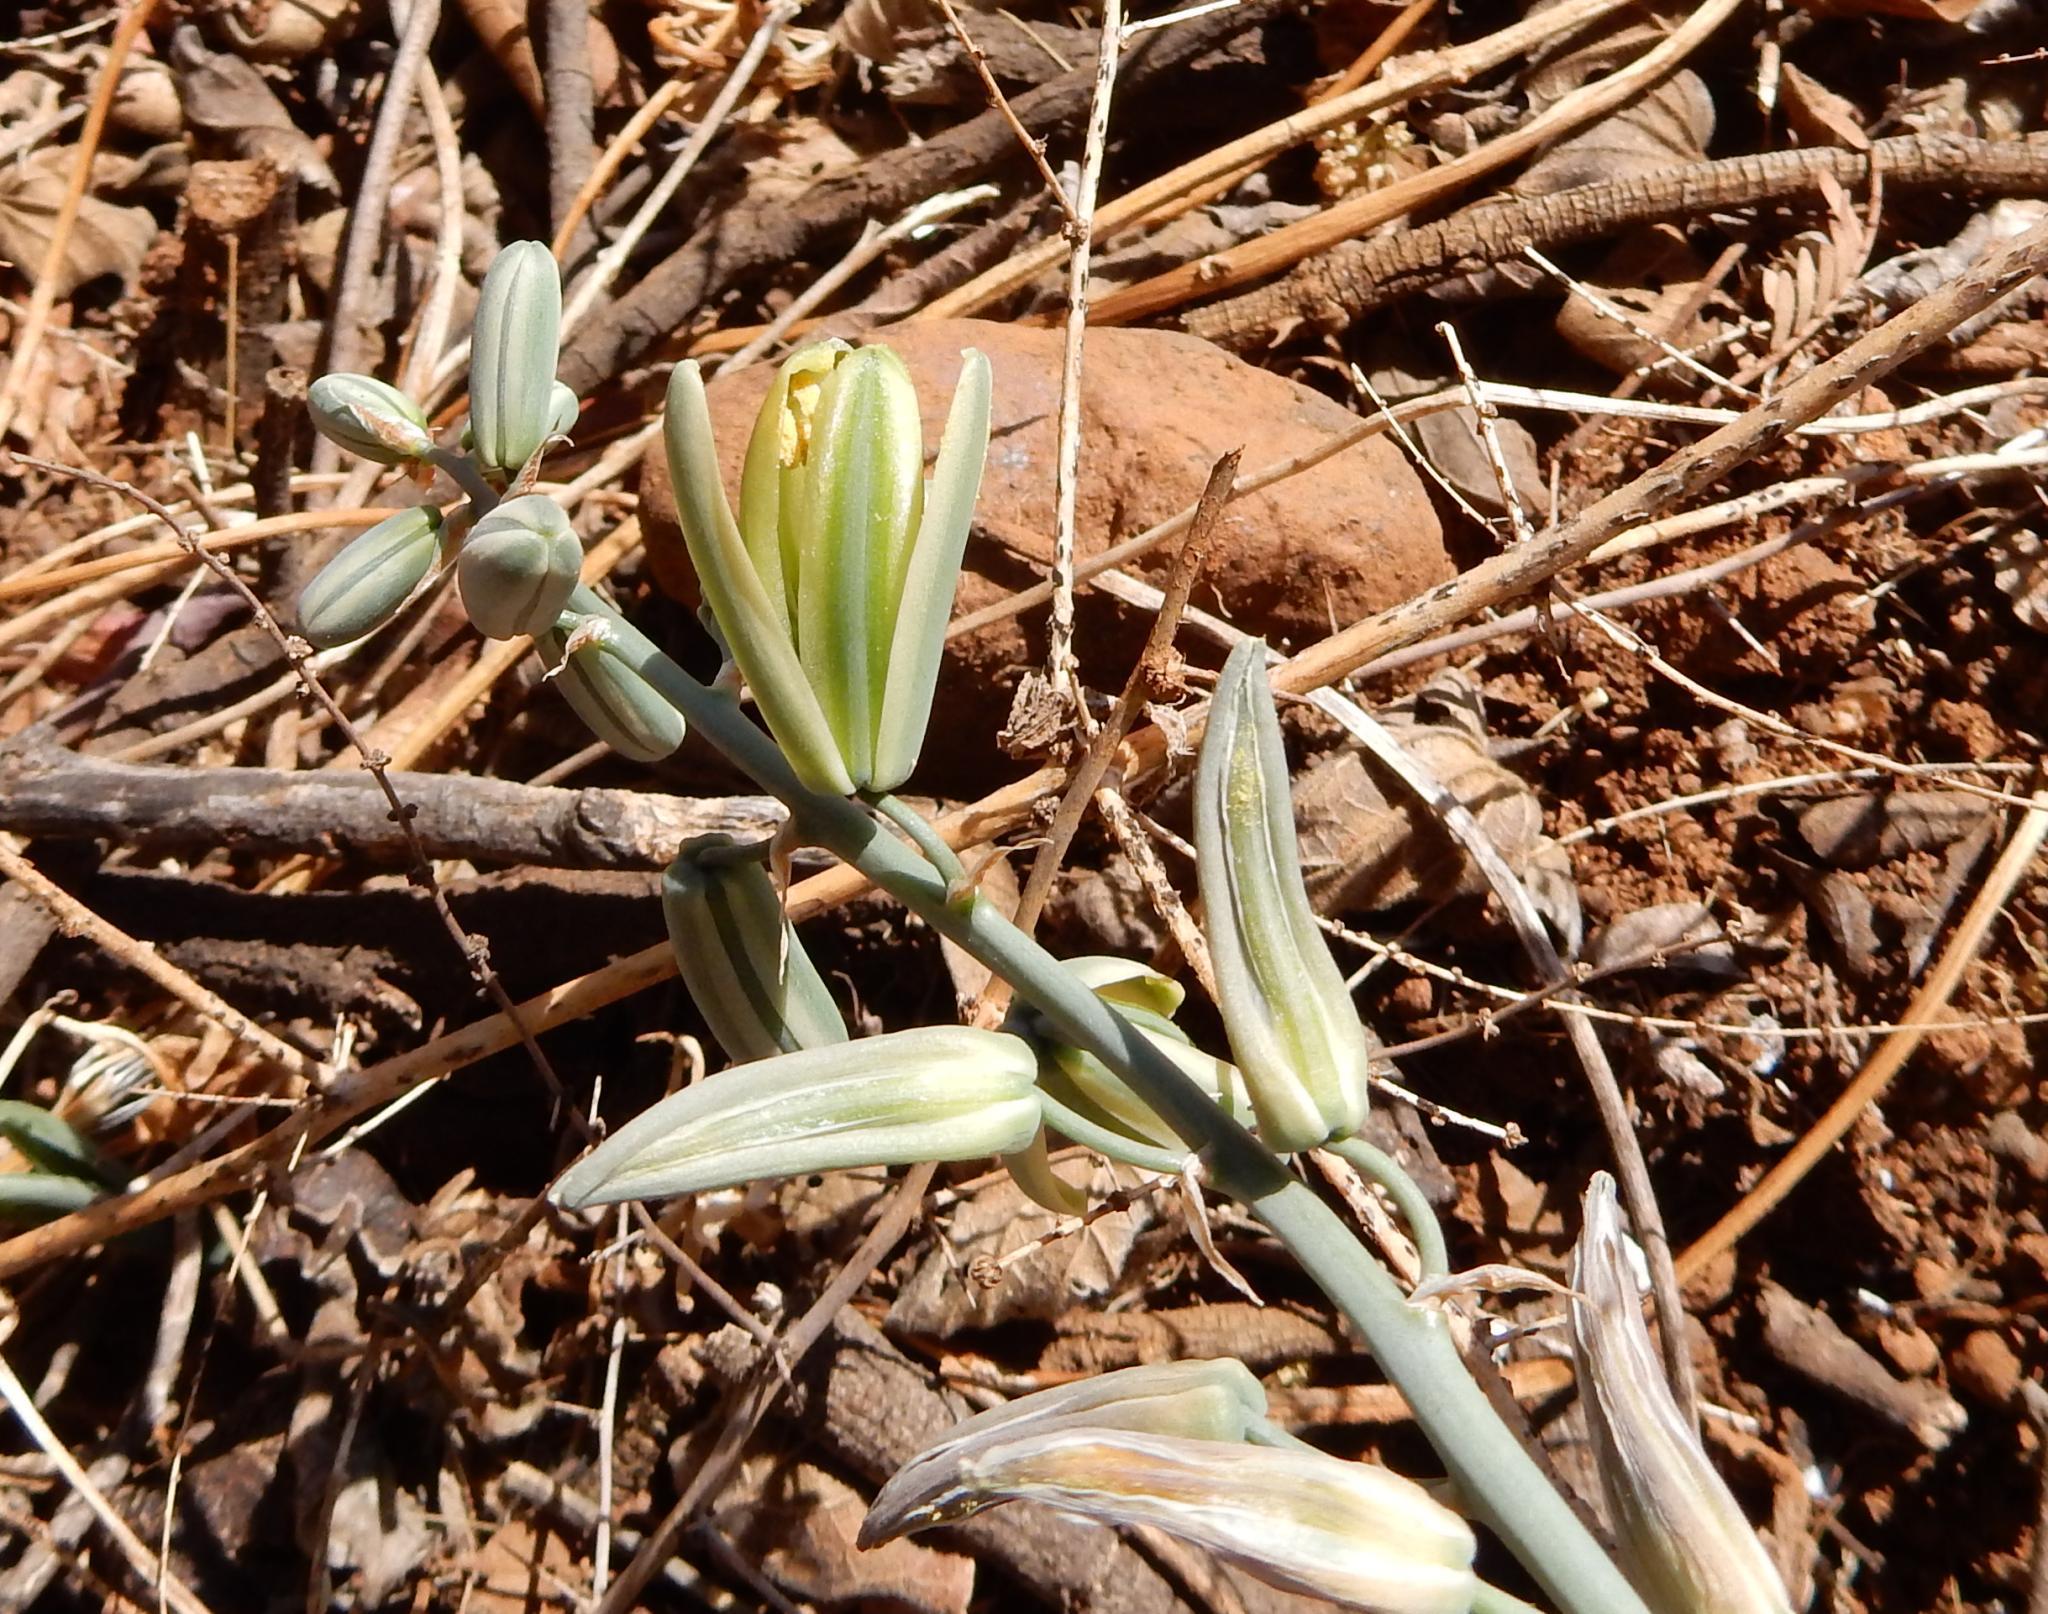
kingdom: Plantae
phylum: Tracheophyta
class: Liliopsida
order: Asparagales
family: Asparagaceae
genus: Albuca
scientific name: Albuca glauca
